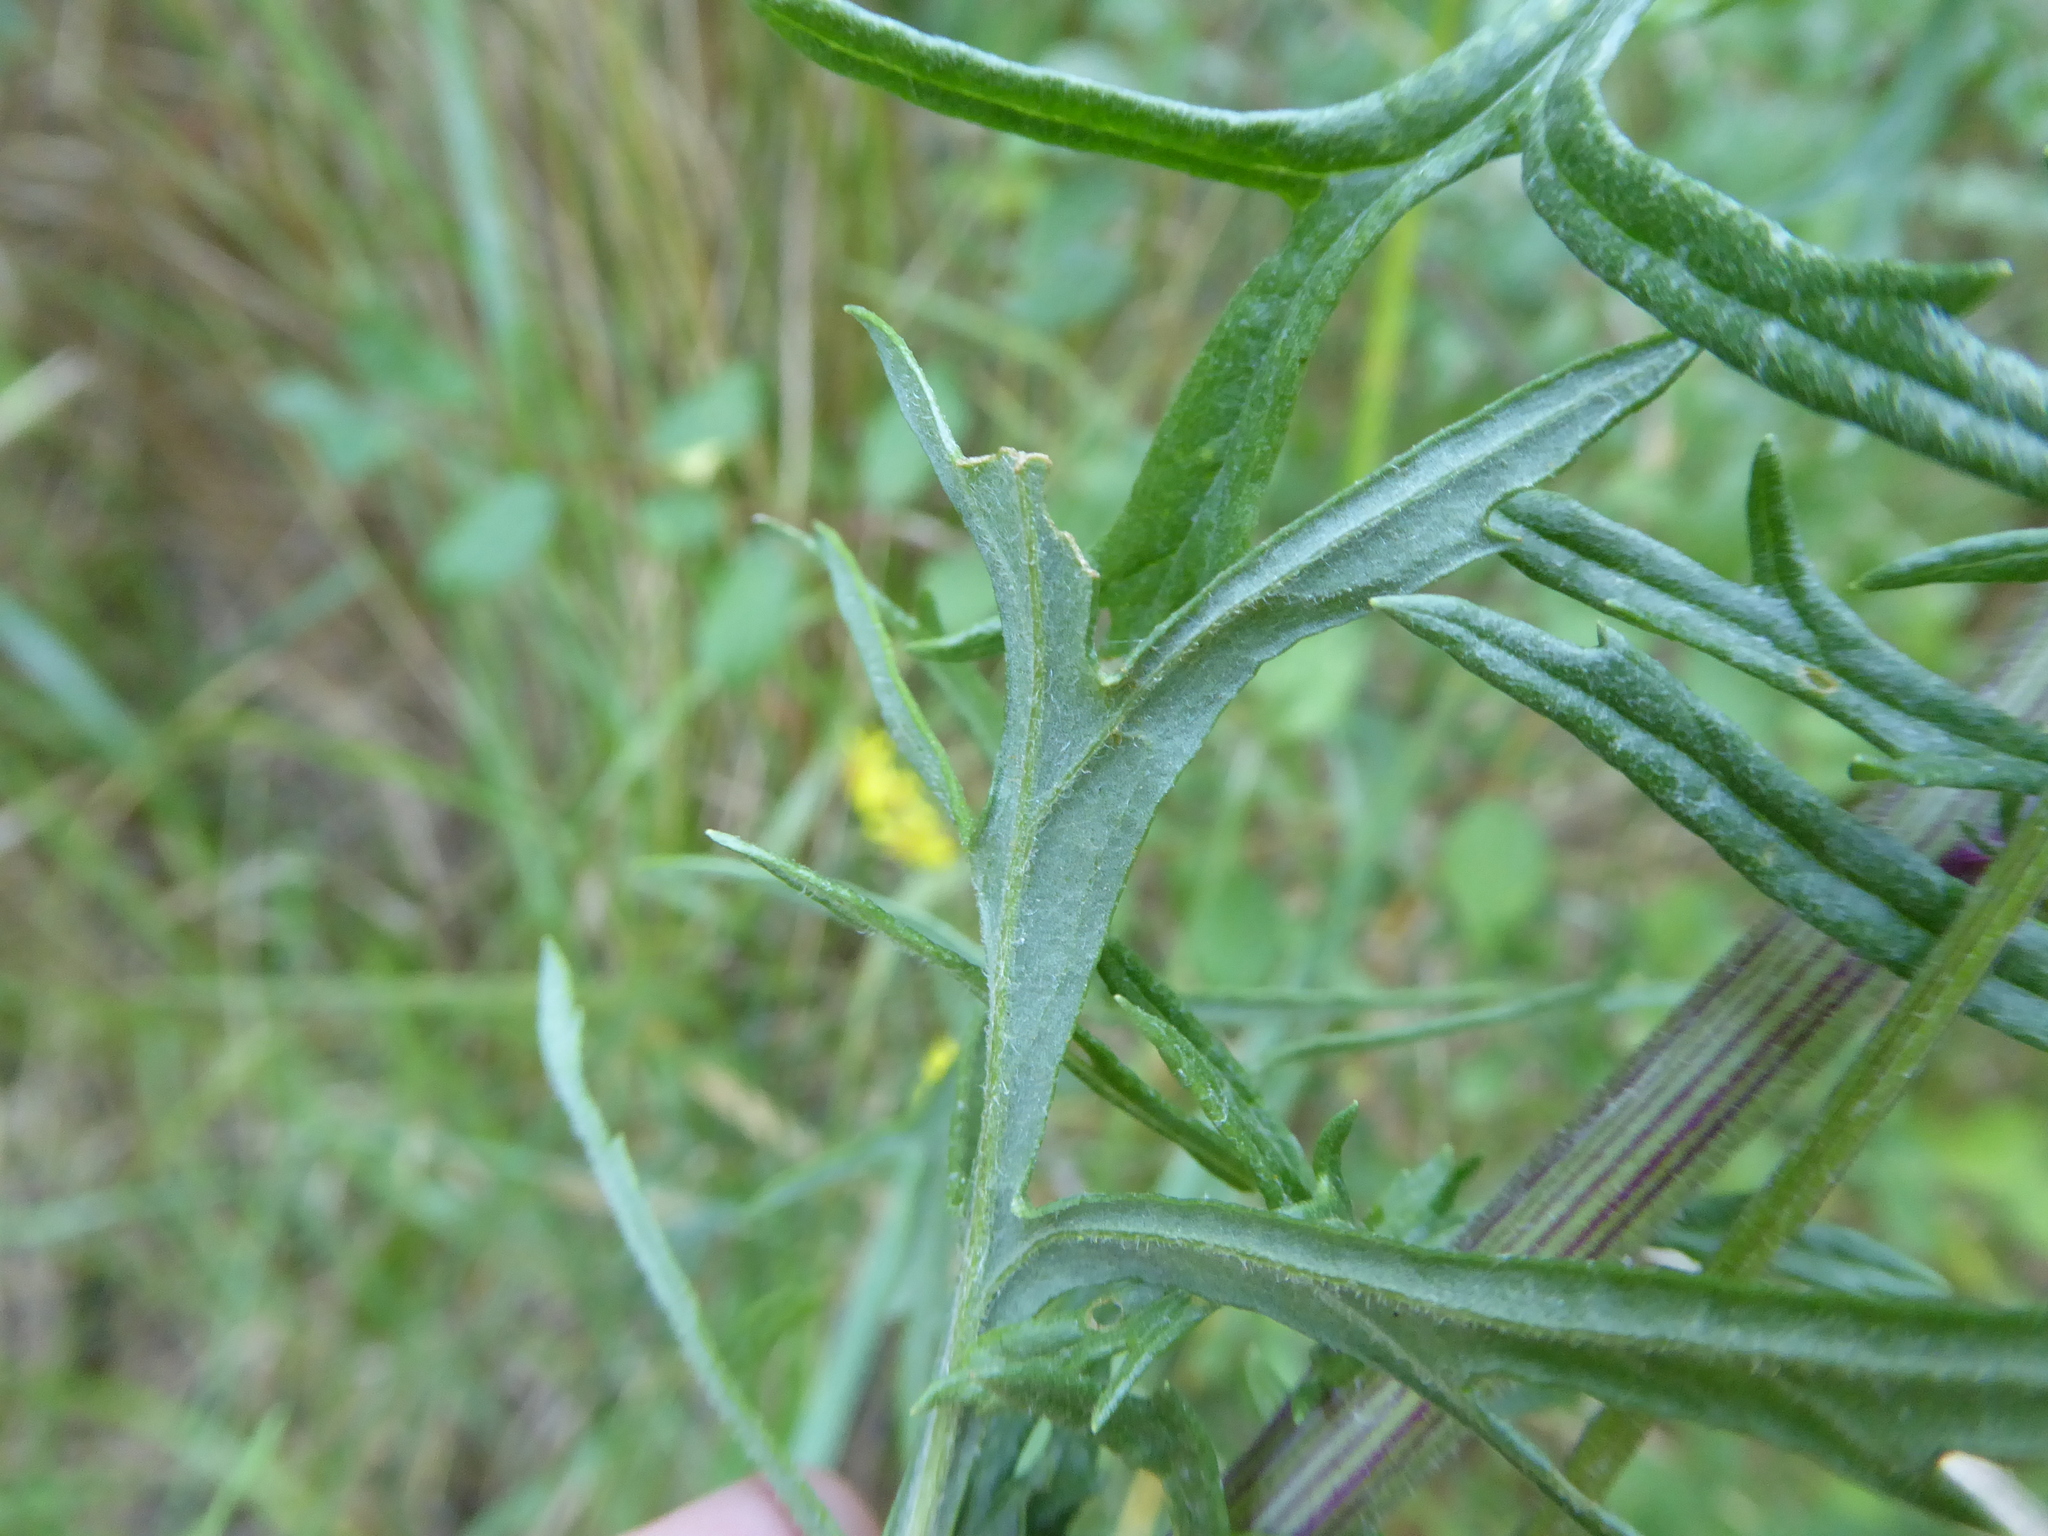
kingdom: Plantae
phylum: Tracheophyta
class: Magnoliopsida
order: Asterales
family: Asteraceae
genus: Jacobaea
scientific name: Jacobaea erucifolia
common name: Hoary ragwort
